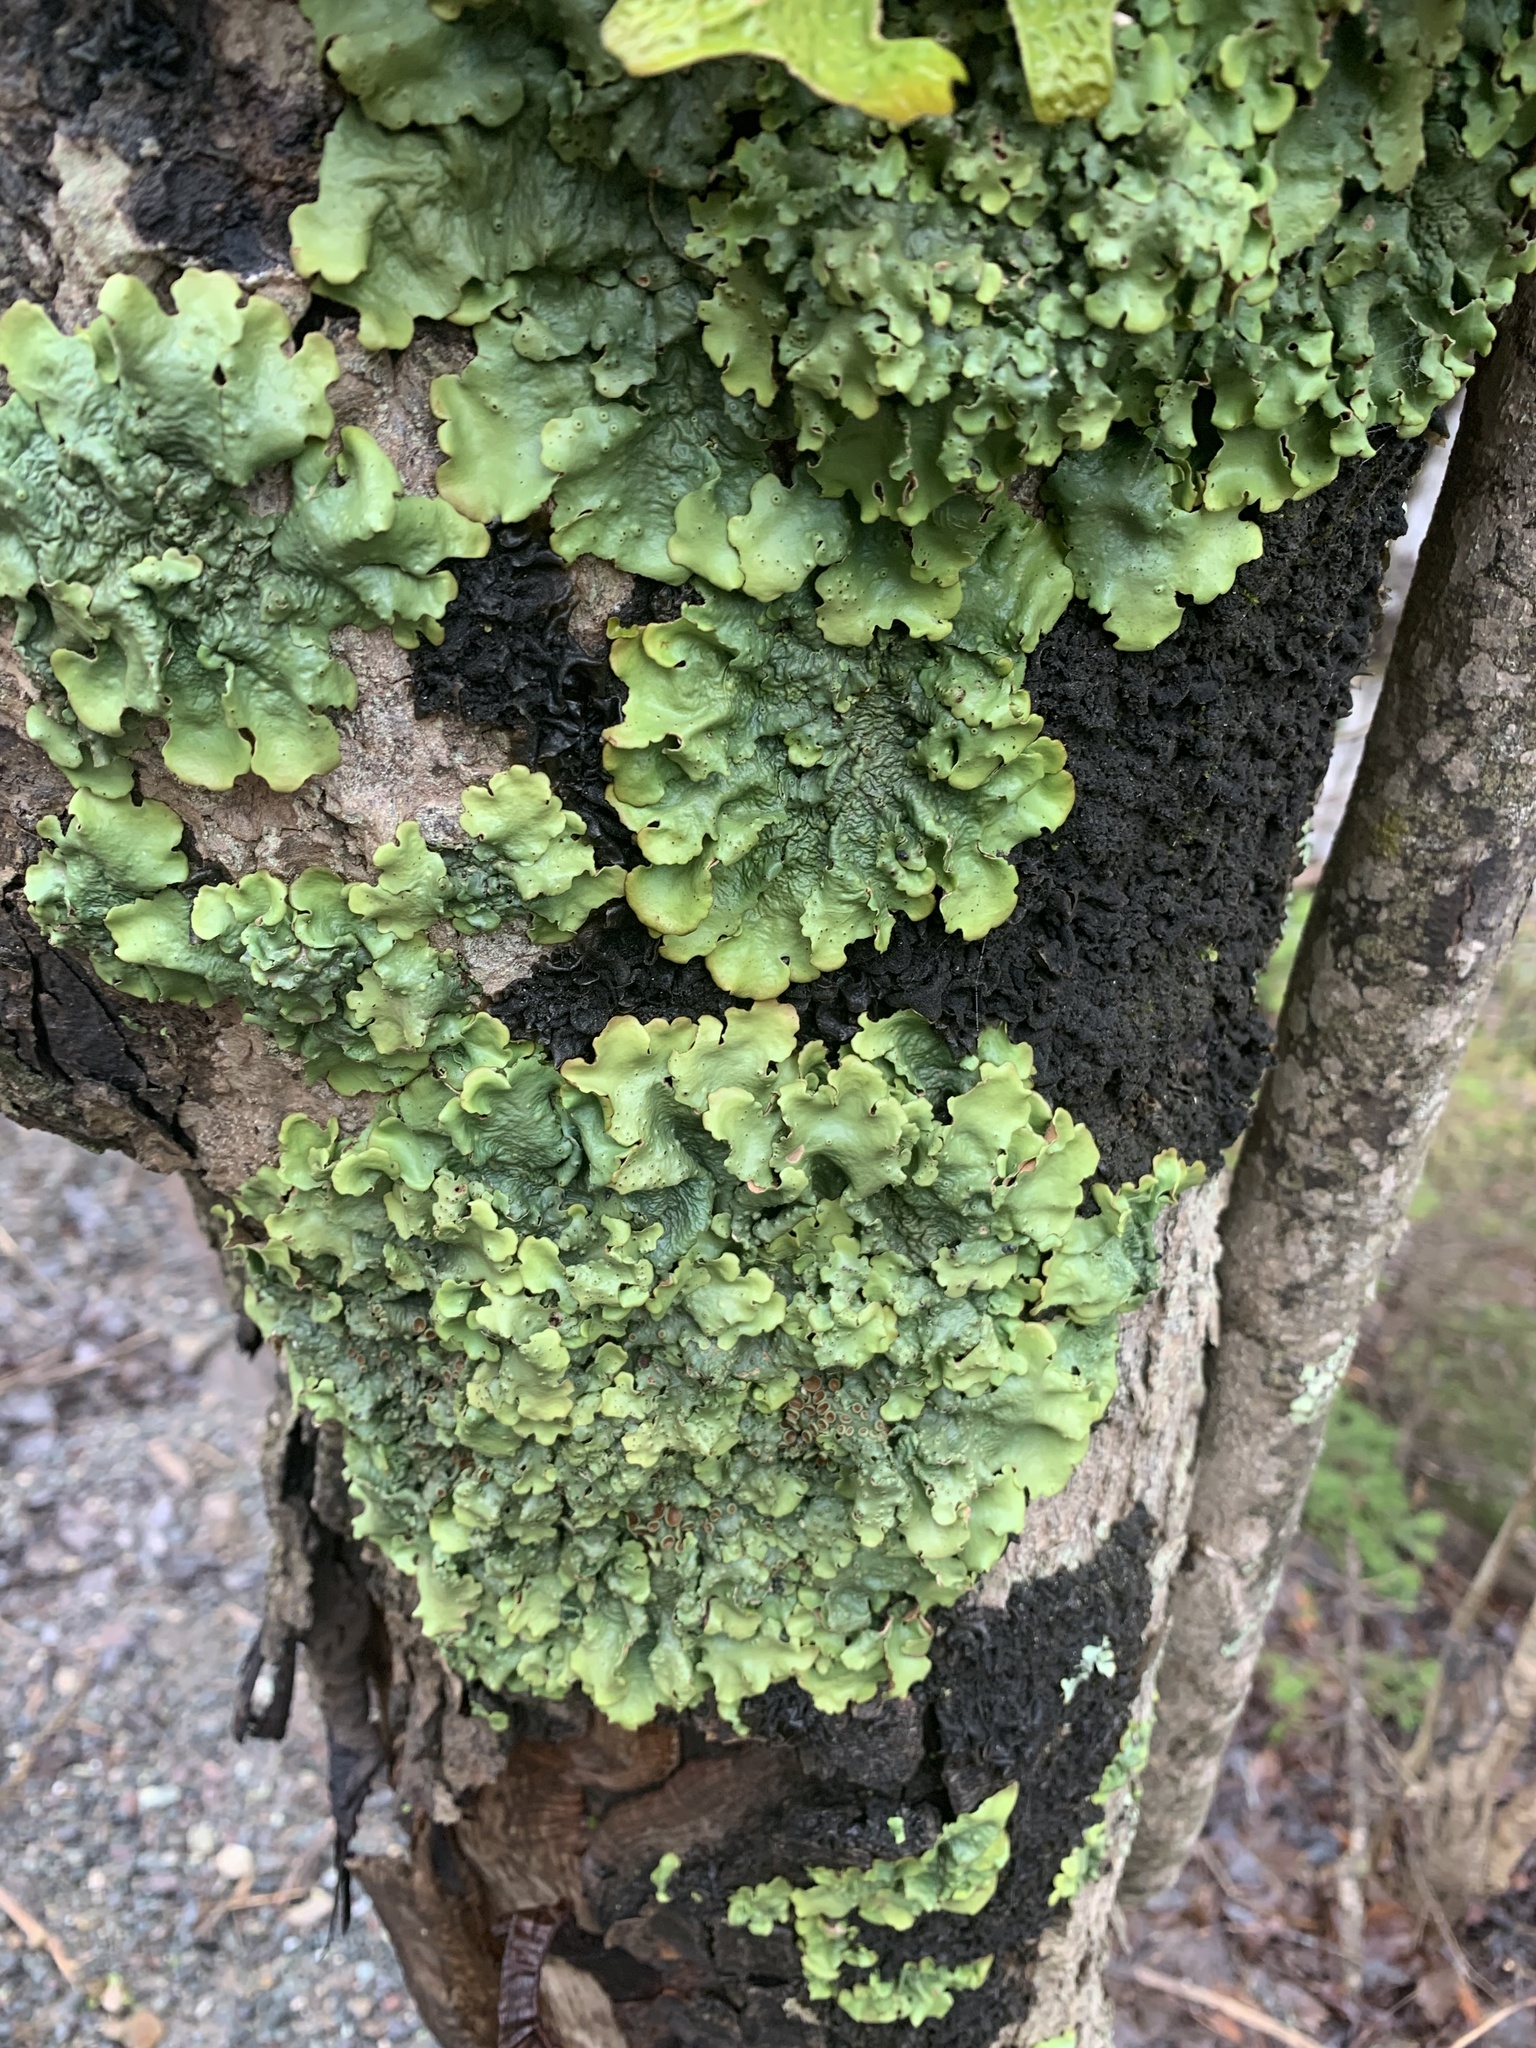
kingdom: Fungi
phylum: Ascomycota
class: Lecanoromycetes
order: Peltigerales
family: Lobariaceae
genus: Ricasolia
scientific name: Ricasolia quercizans
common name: Smooth lungwort
